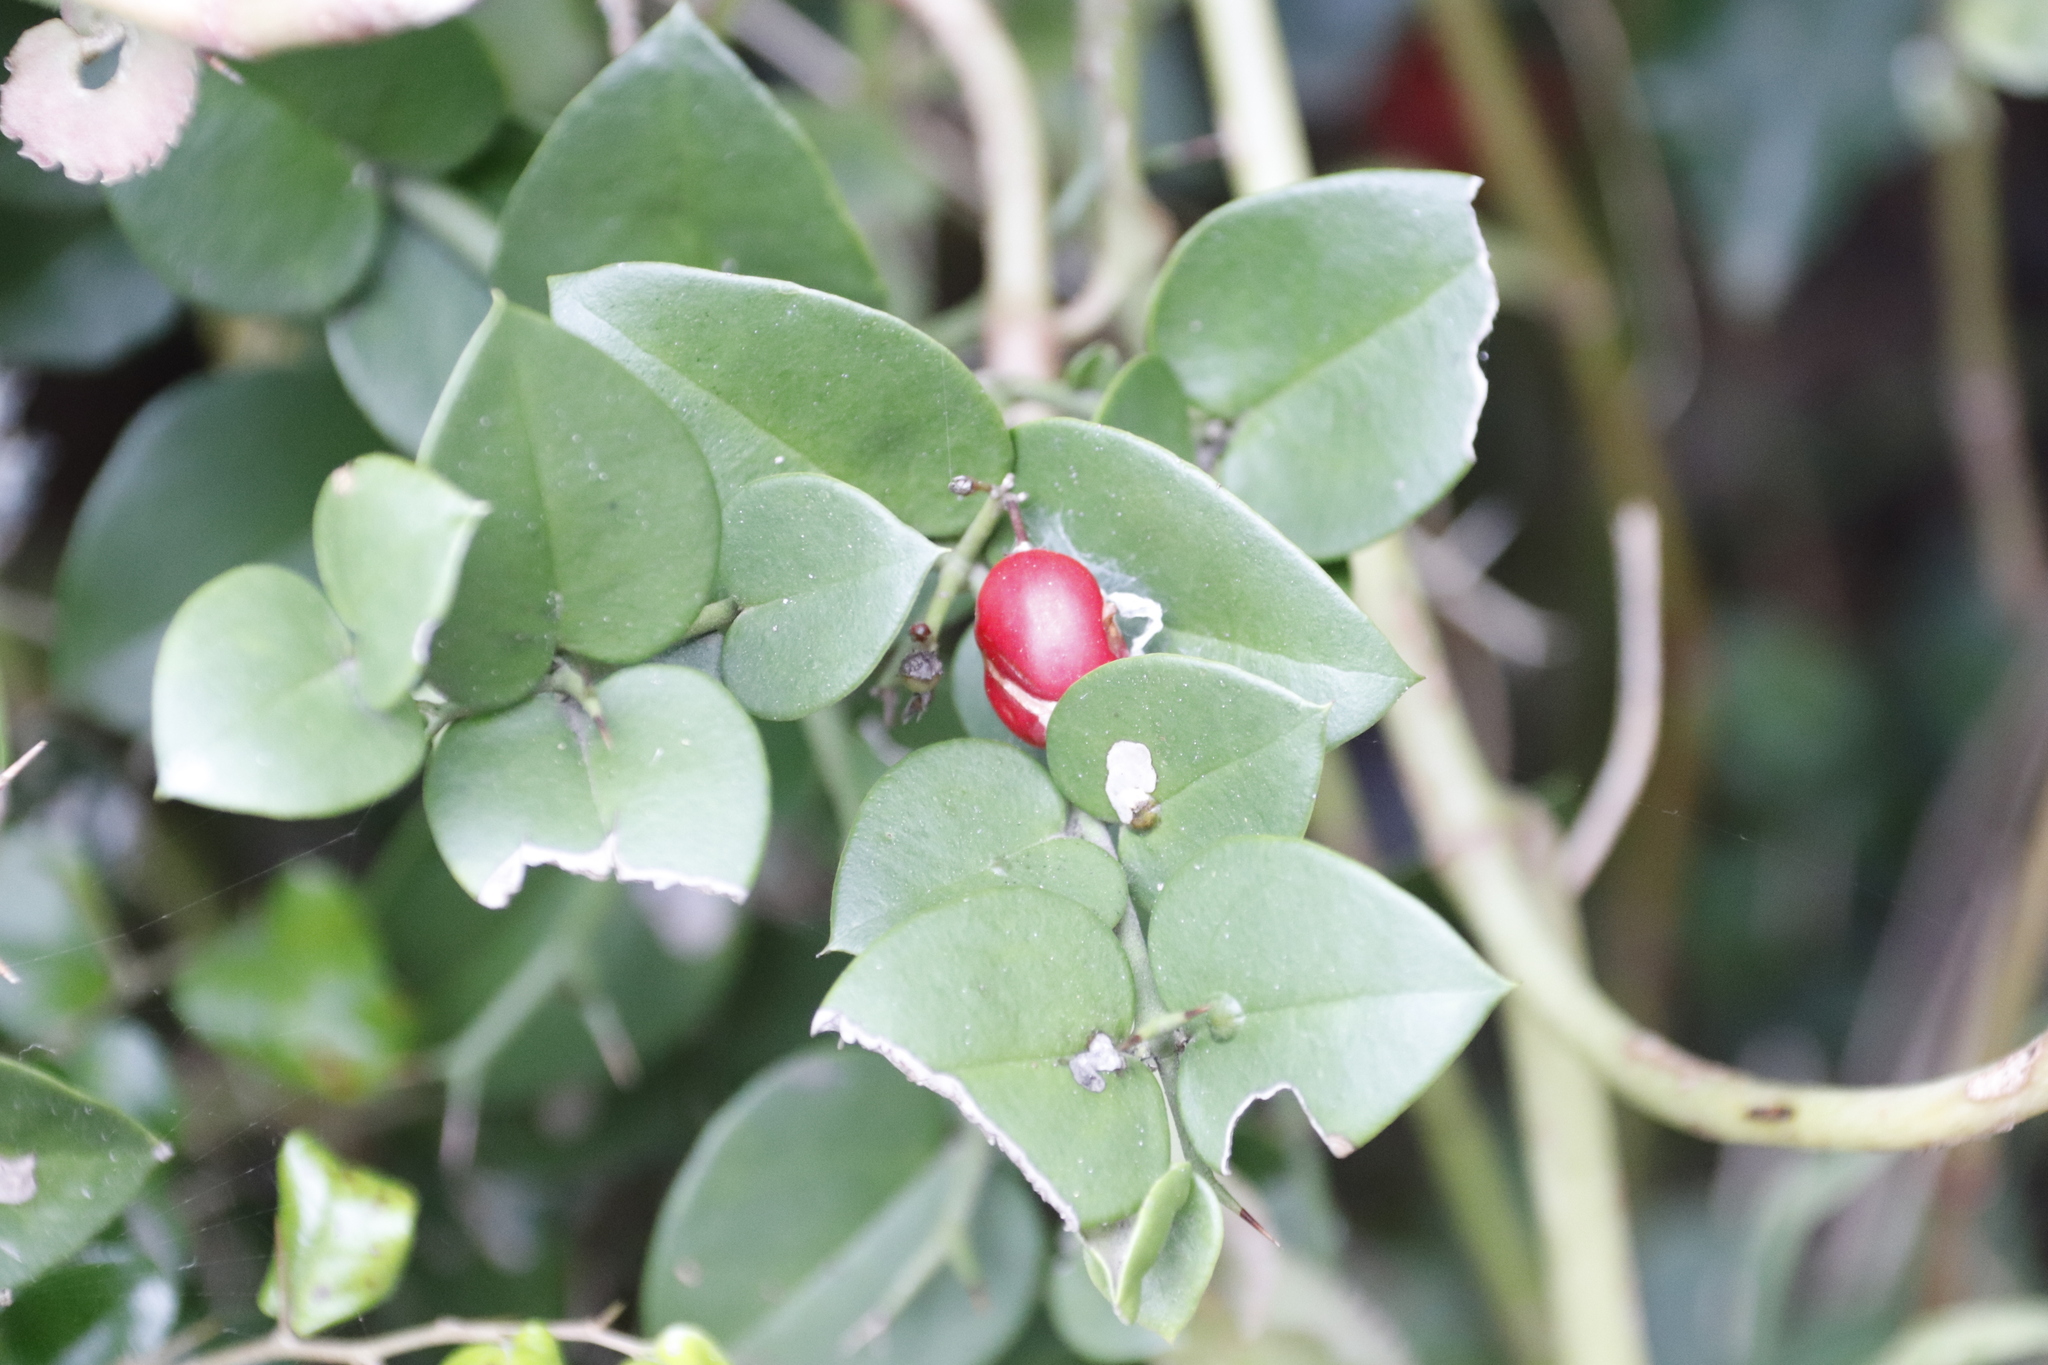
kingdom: Plantae
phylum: Tracheophyta
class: Magnoliopsida
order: Gentianales
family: Apocynaceae
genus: Carissa
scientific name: Carissa bispinosa
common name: Forest num-num
